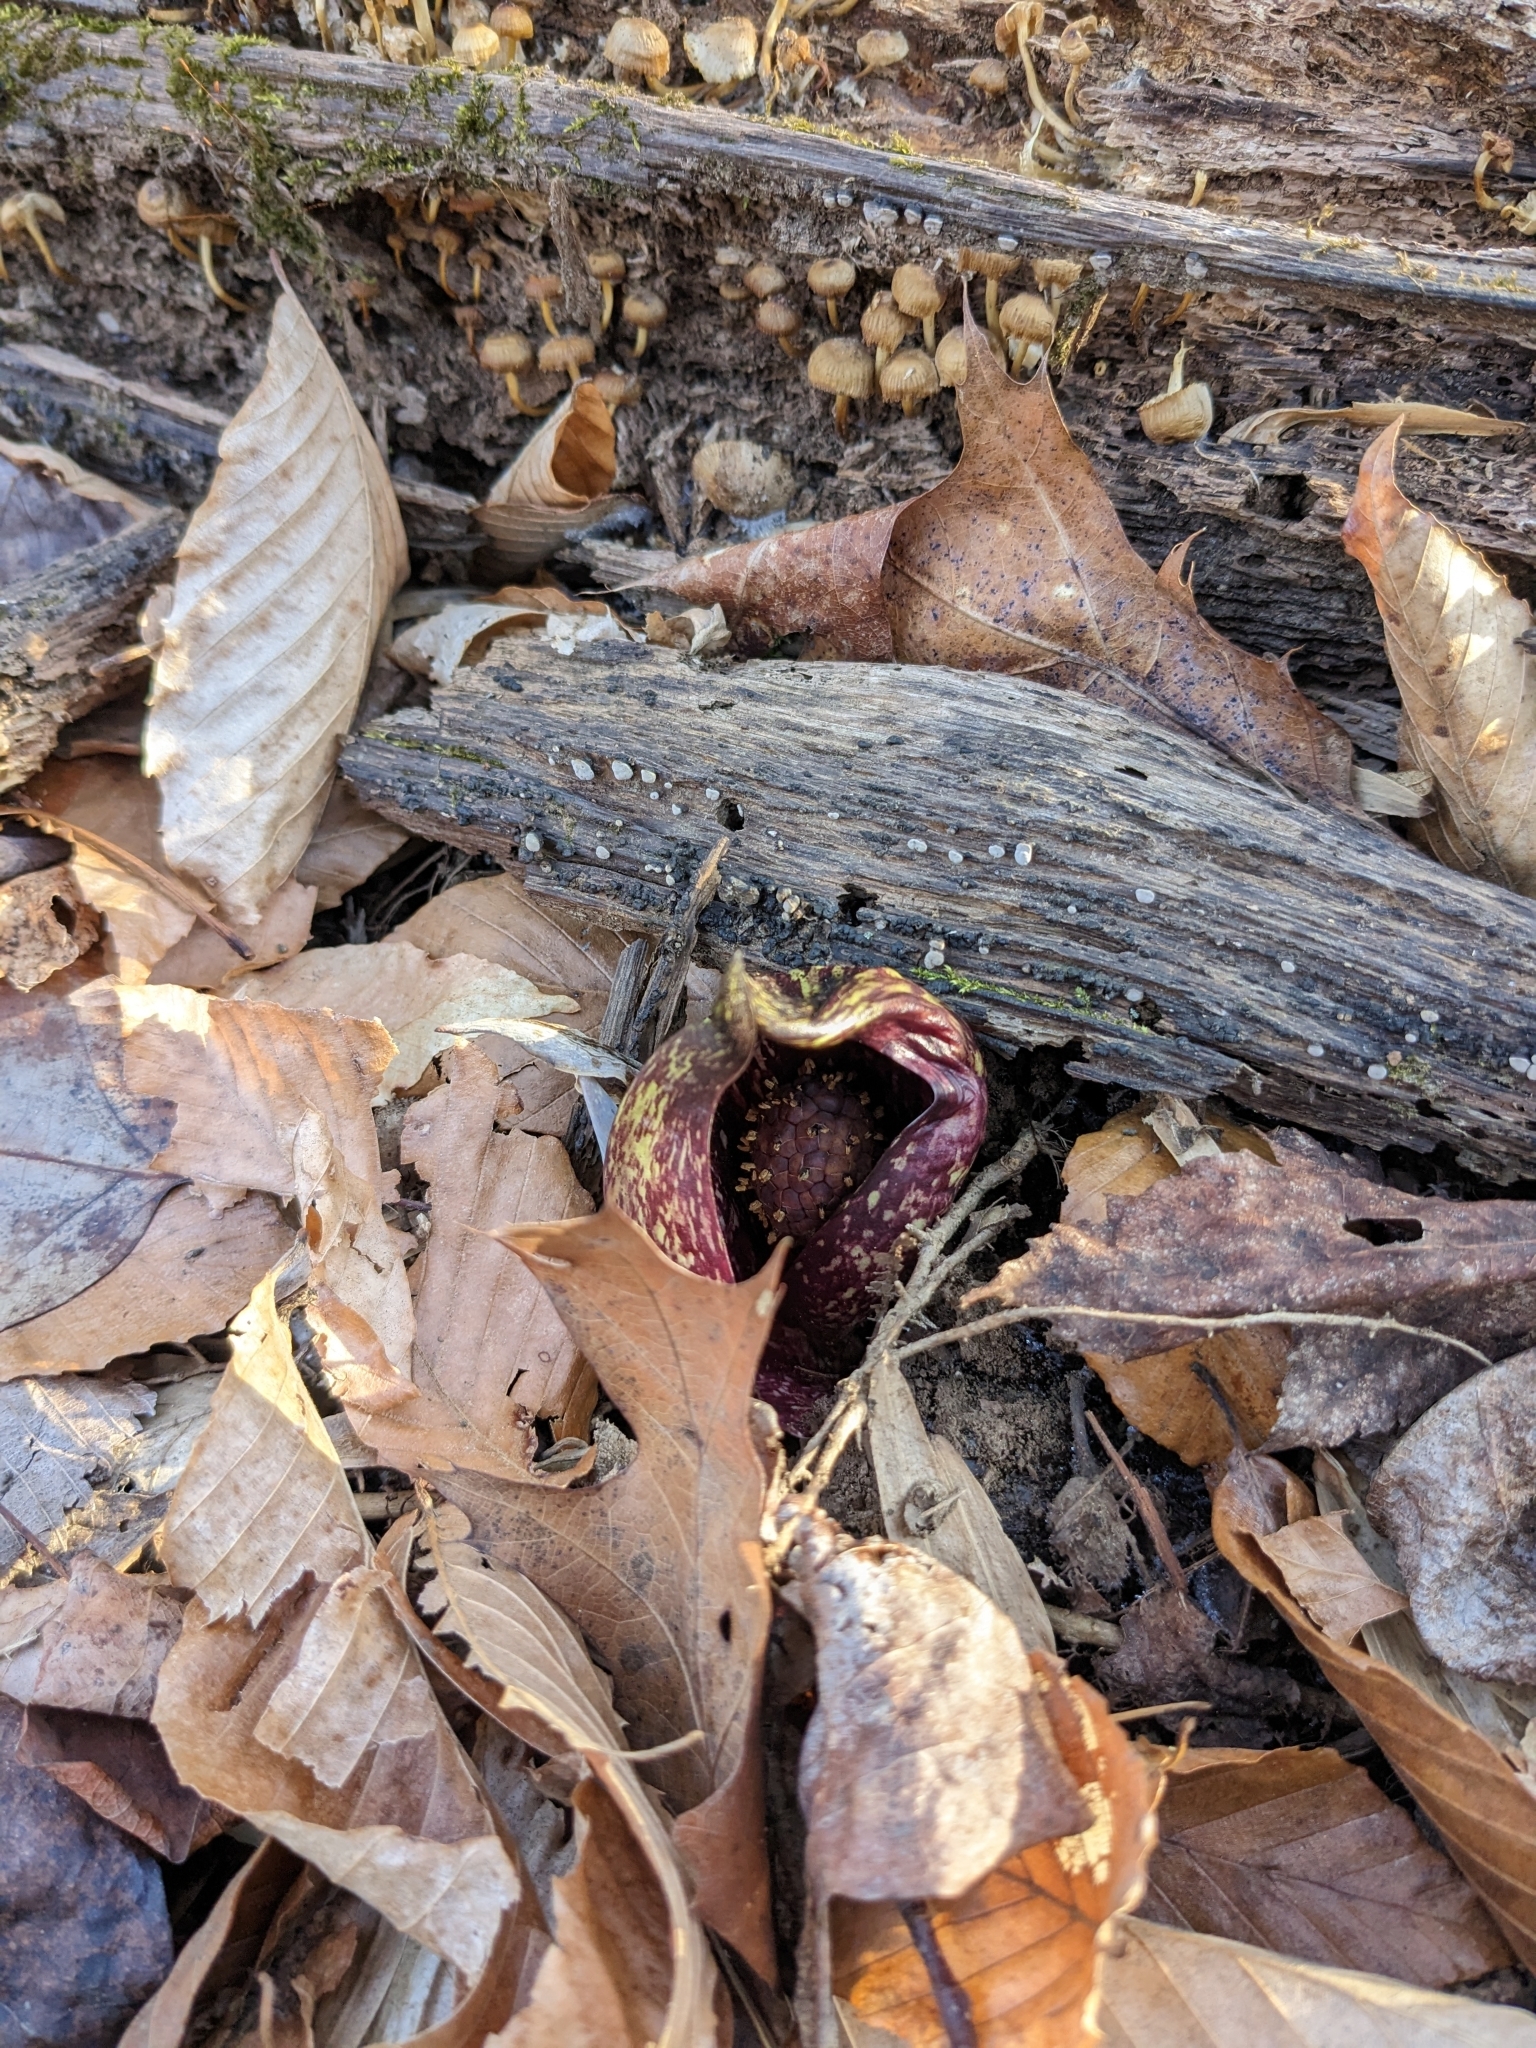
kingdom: Plantae
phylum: Tracheophyta
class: Liliopsida
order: Alismatales
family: Araceae
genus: Symplocarpus
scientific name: Symplocarpus foetidus
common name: Eastern skunk cabbage
